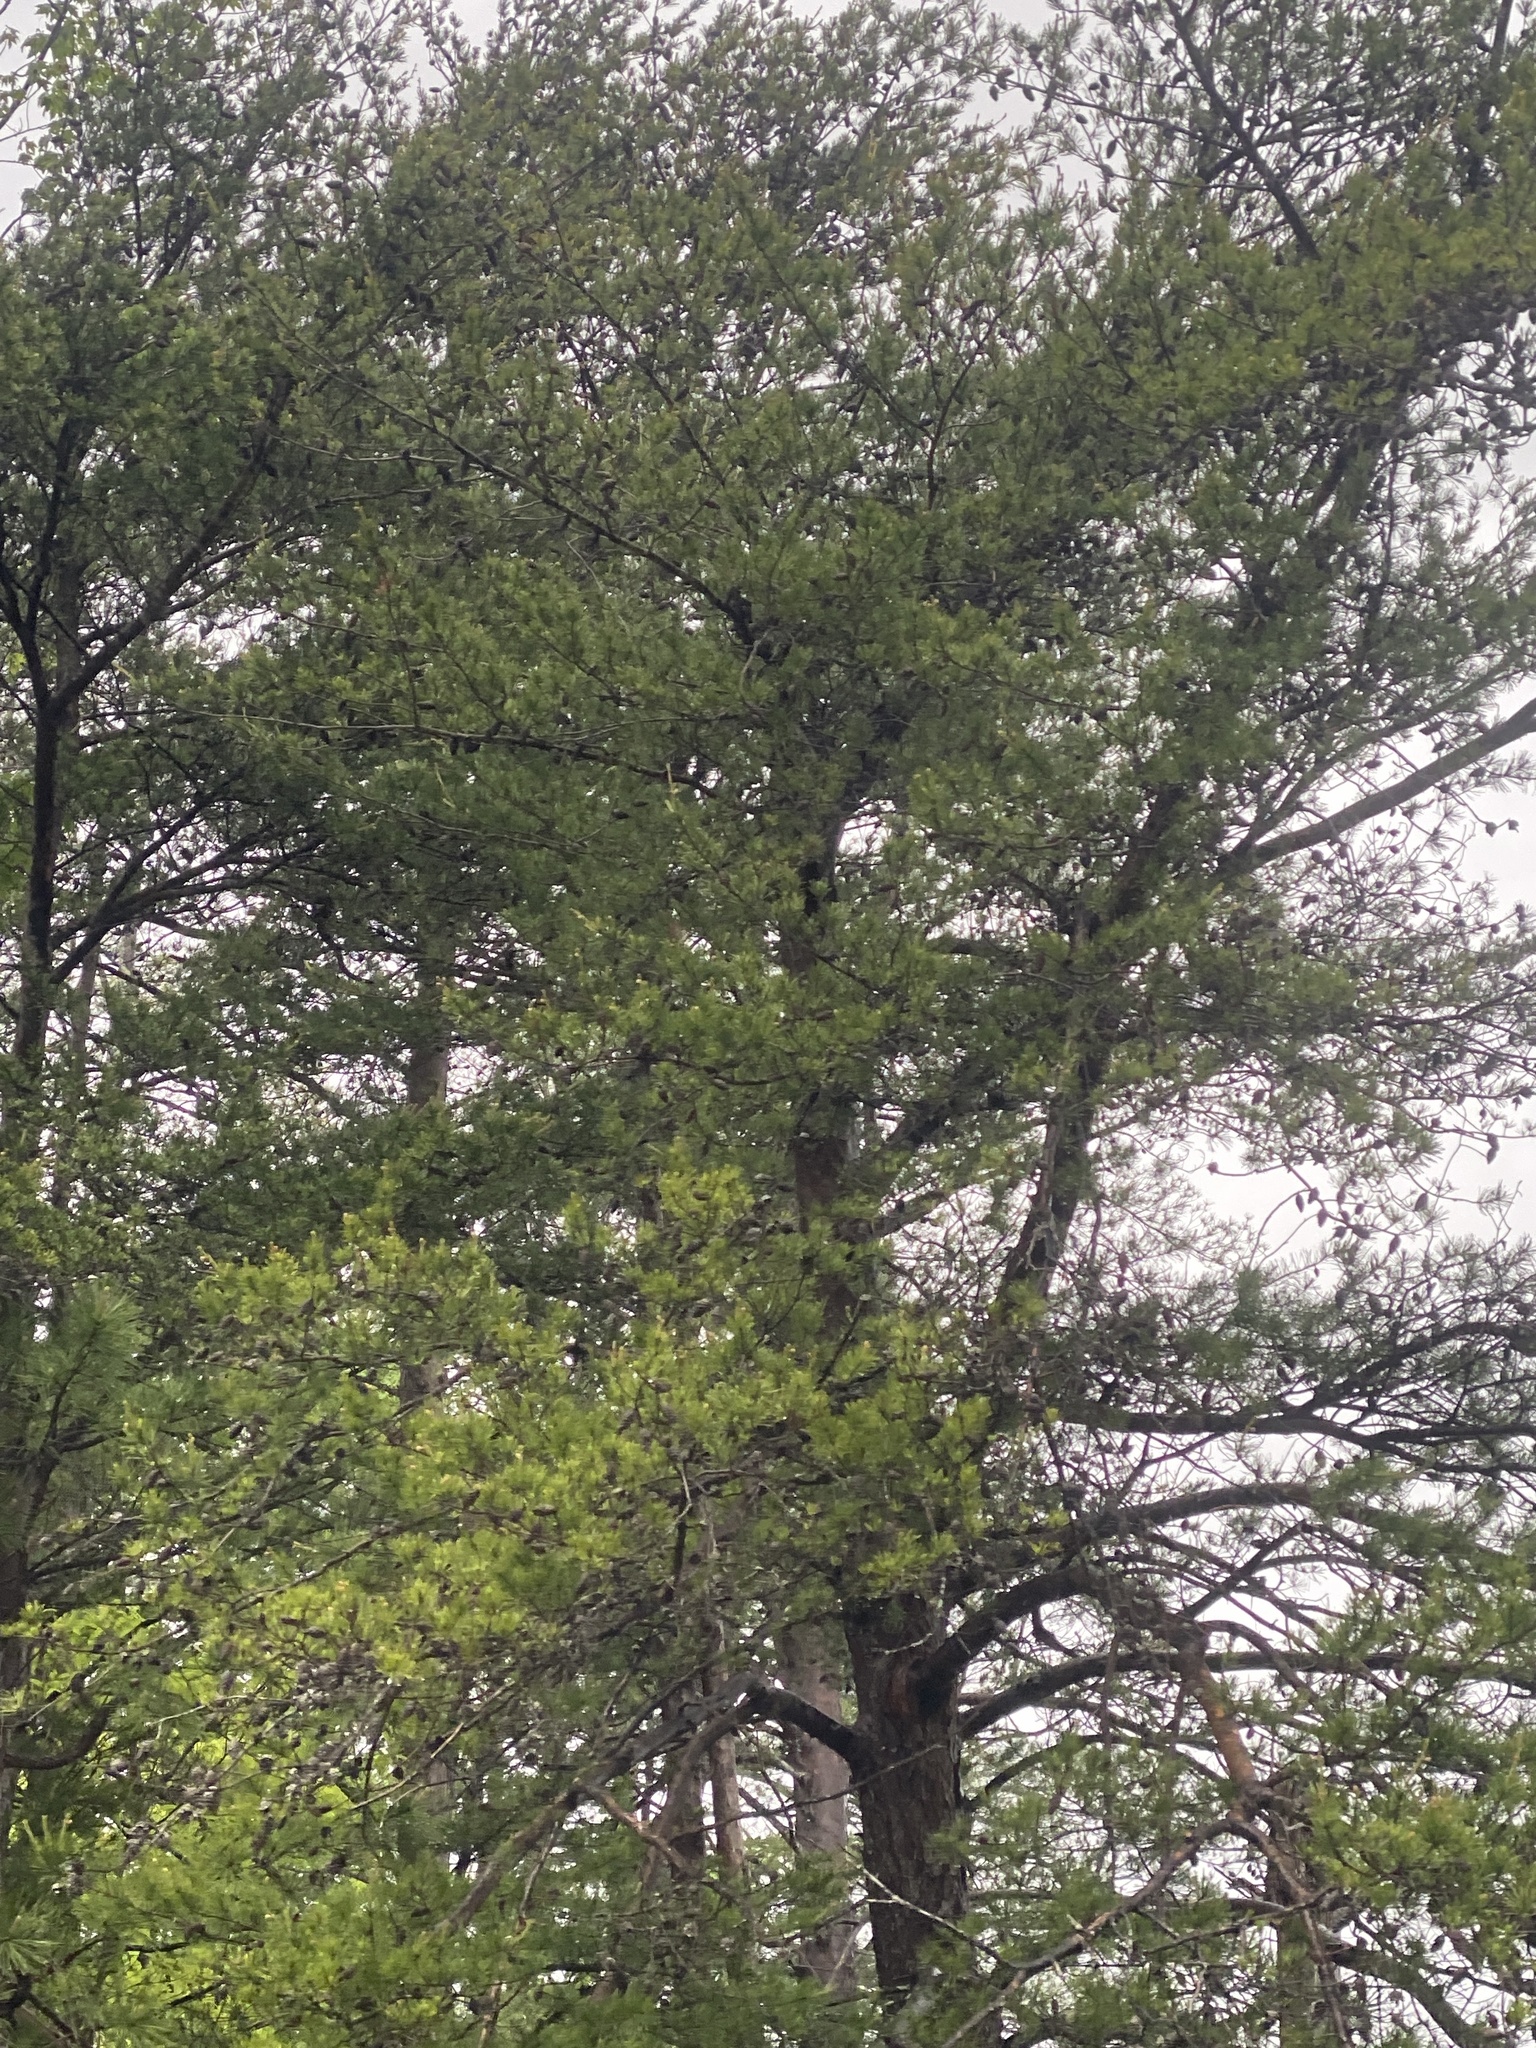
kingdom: Plantae
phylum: Tracheophyta
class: Pinopsida
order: Pinales
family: Pinaceae
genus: Pinus
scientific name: Pinus virginiana
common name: Scrub pine
